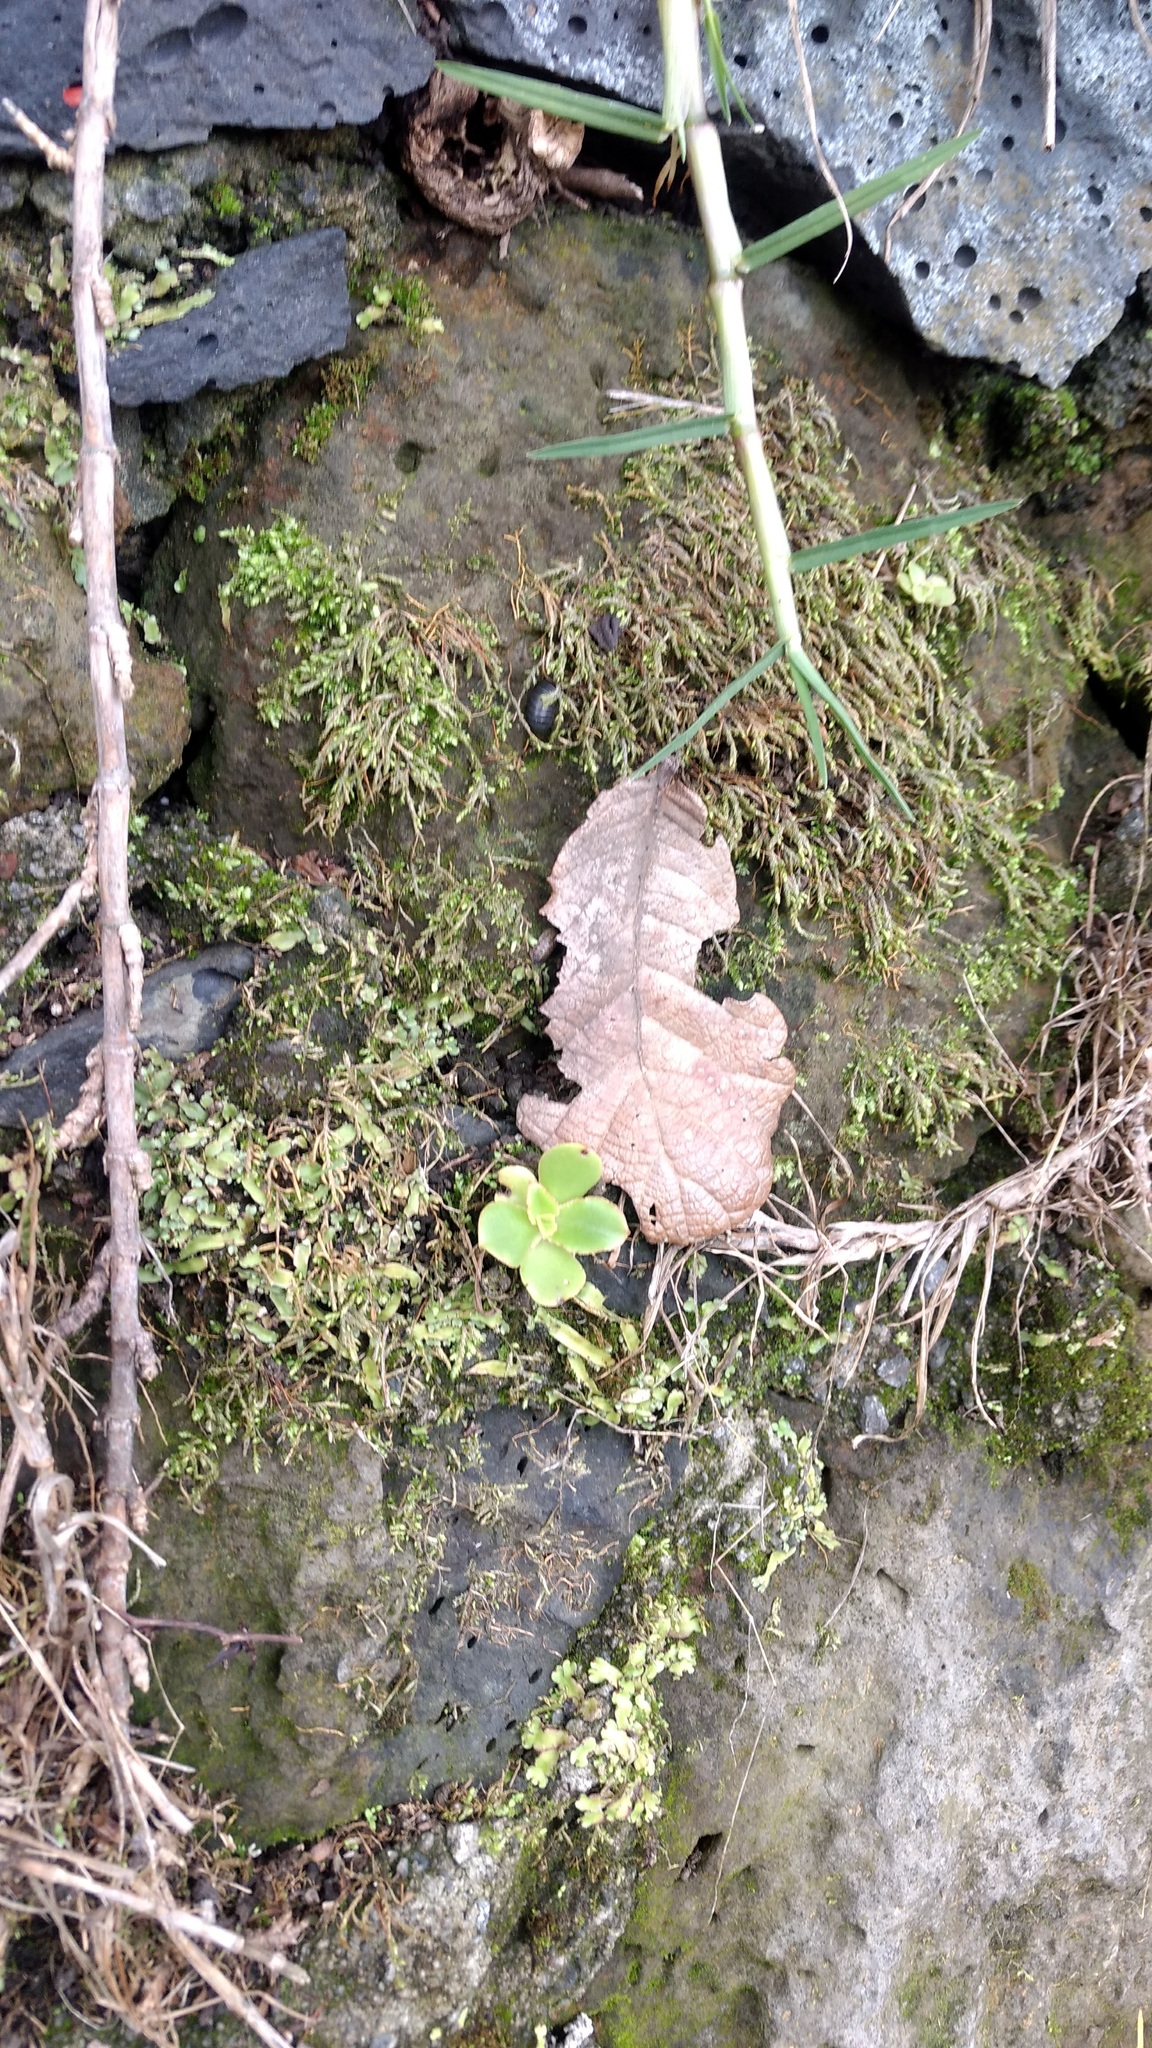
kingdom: Plantae
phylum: Tracheophyta
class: Magnoliopsida
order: Saxifragales
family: Crassulaceae
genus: Echeveria
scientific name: Echeveria fulgens
